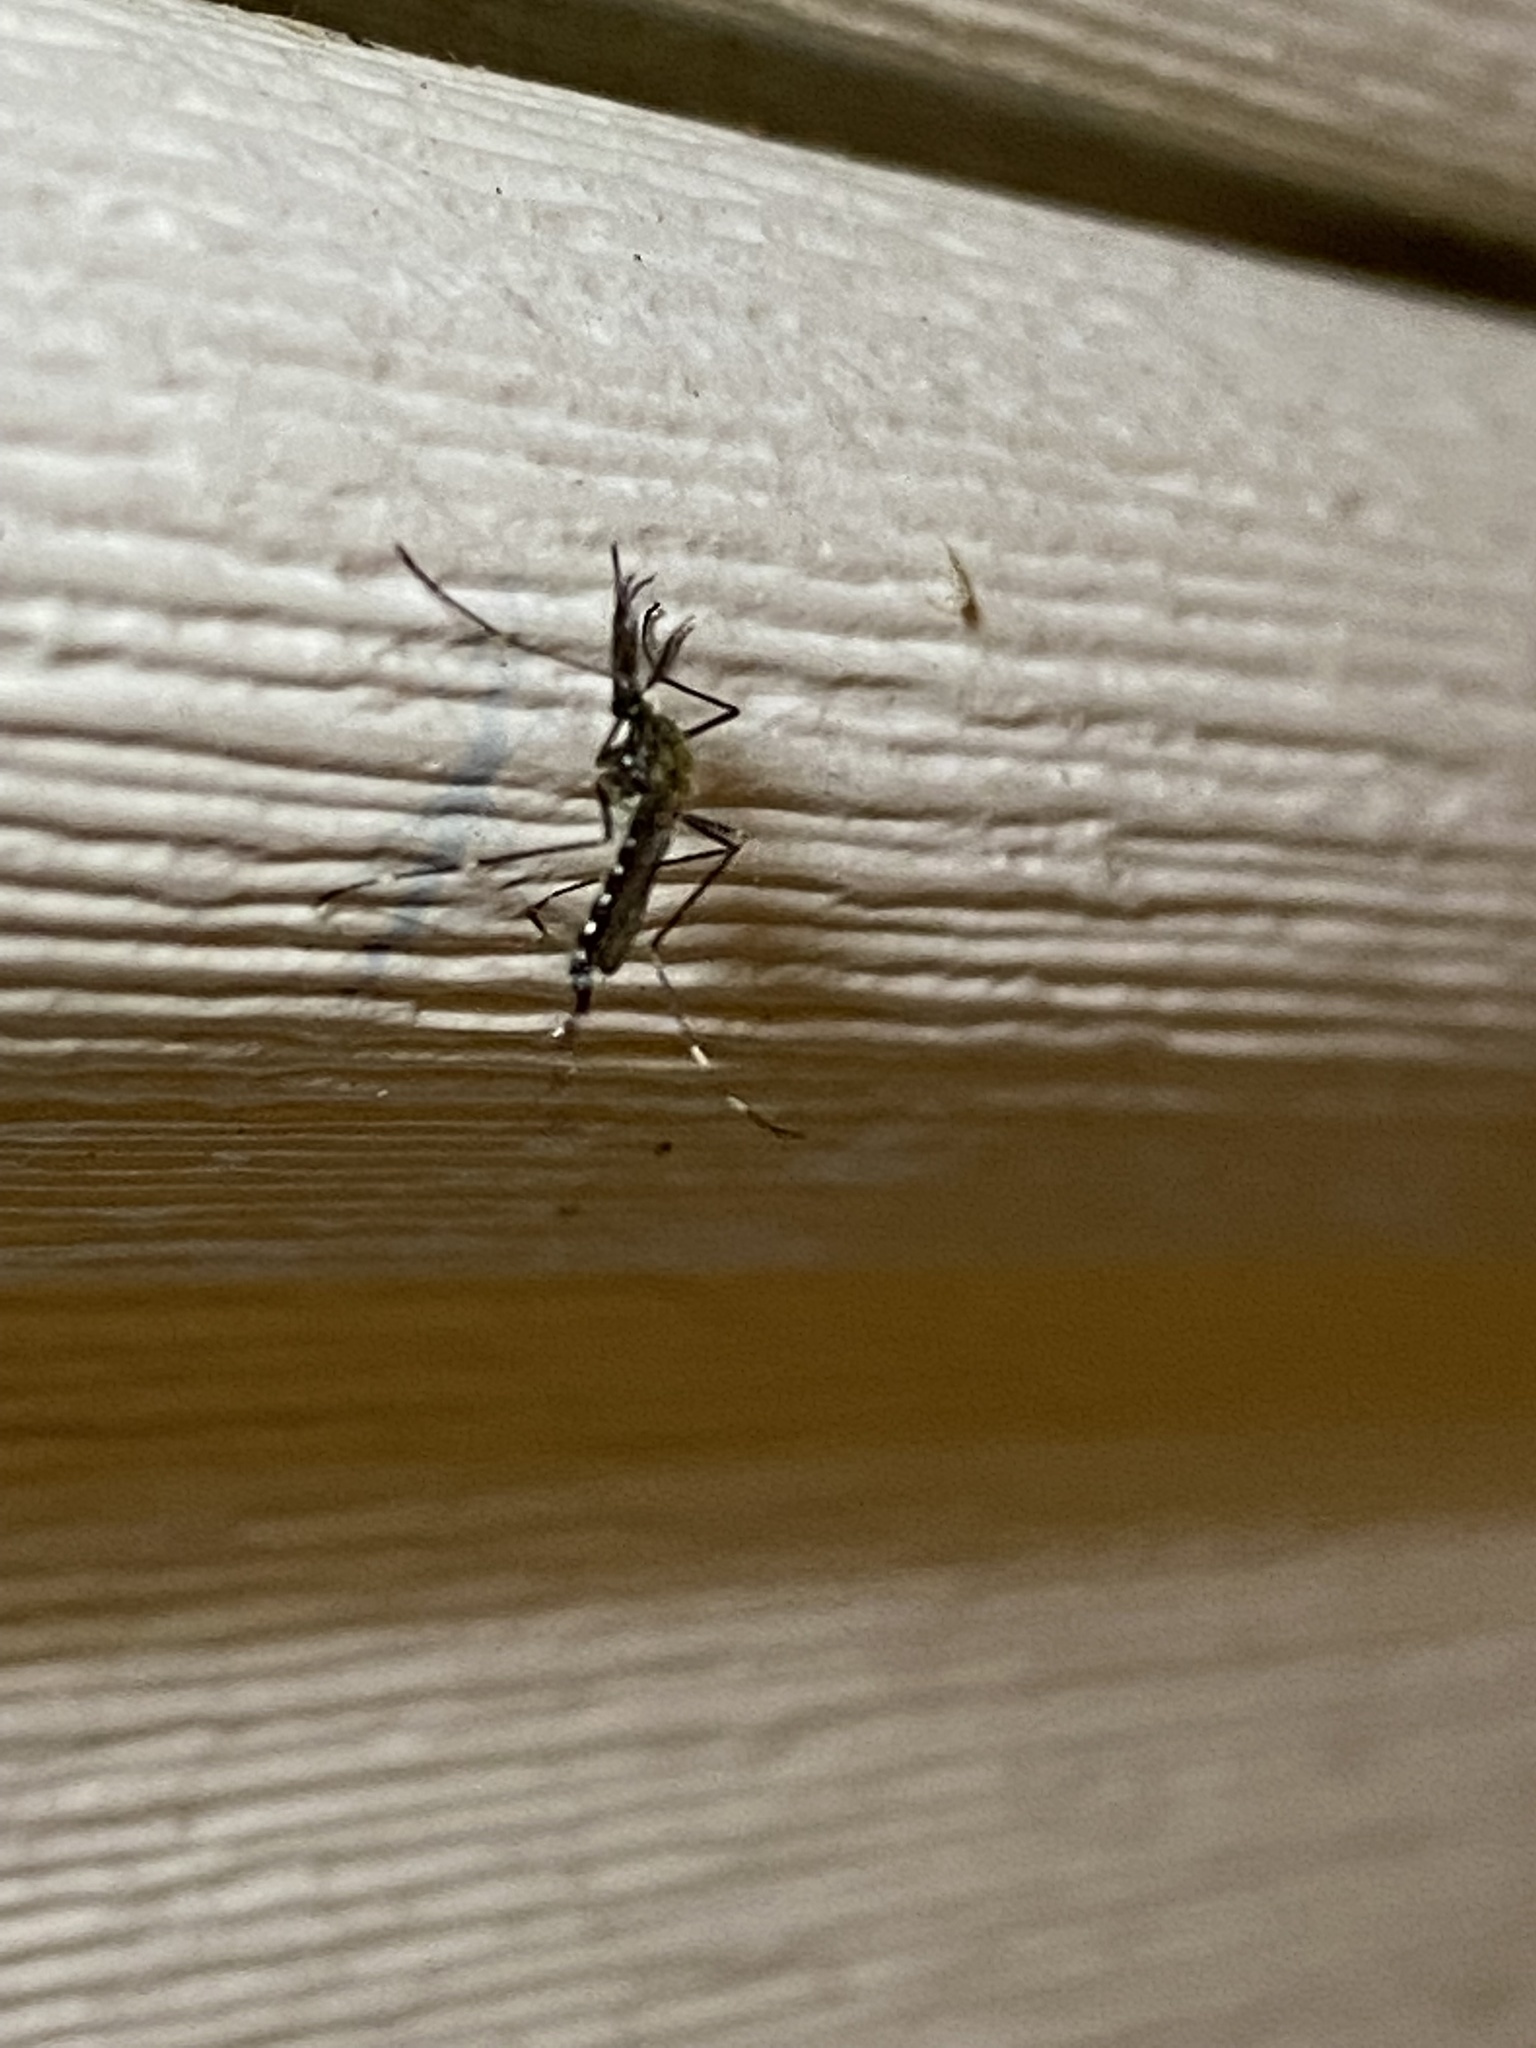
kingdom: Animalia
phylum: Arthropoda
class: Insecta
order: Diptera
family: Culicidae
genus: Aedes
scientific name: Aedes japonicus
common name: Asian bush mosquito
